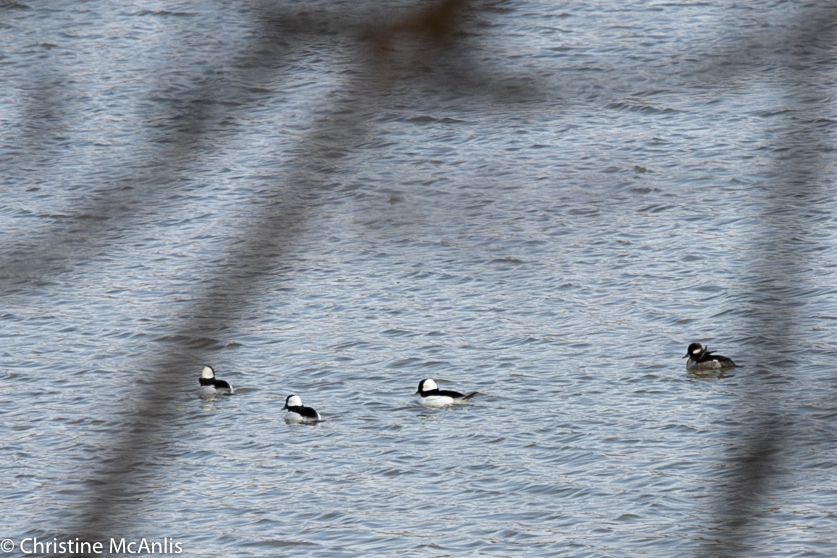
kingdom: Animalia
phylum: Chordata
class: Aves
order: Anseriformes
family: Anatidae
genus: Bucephala
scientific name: Bucephala albeola
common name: Bufflehead
